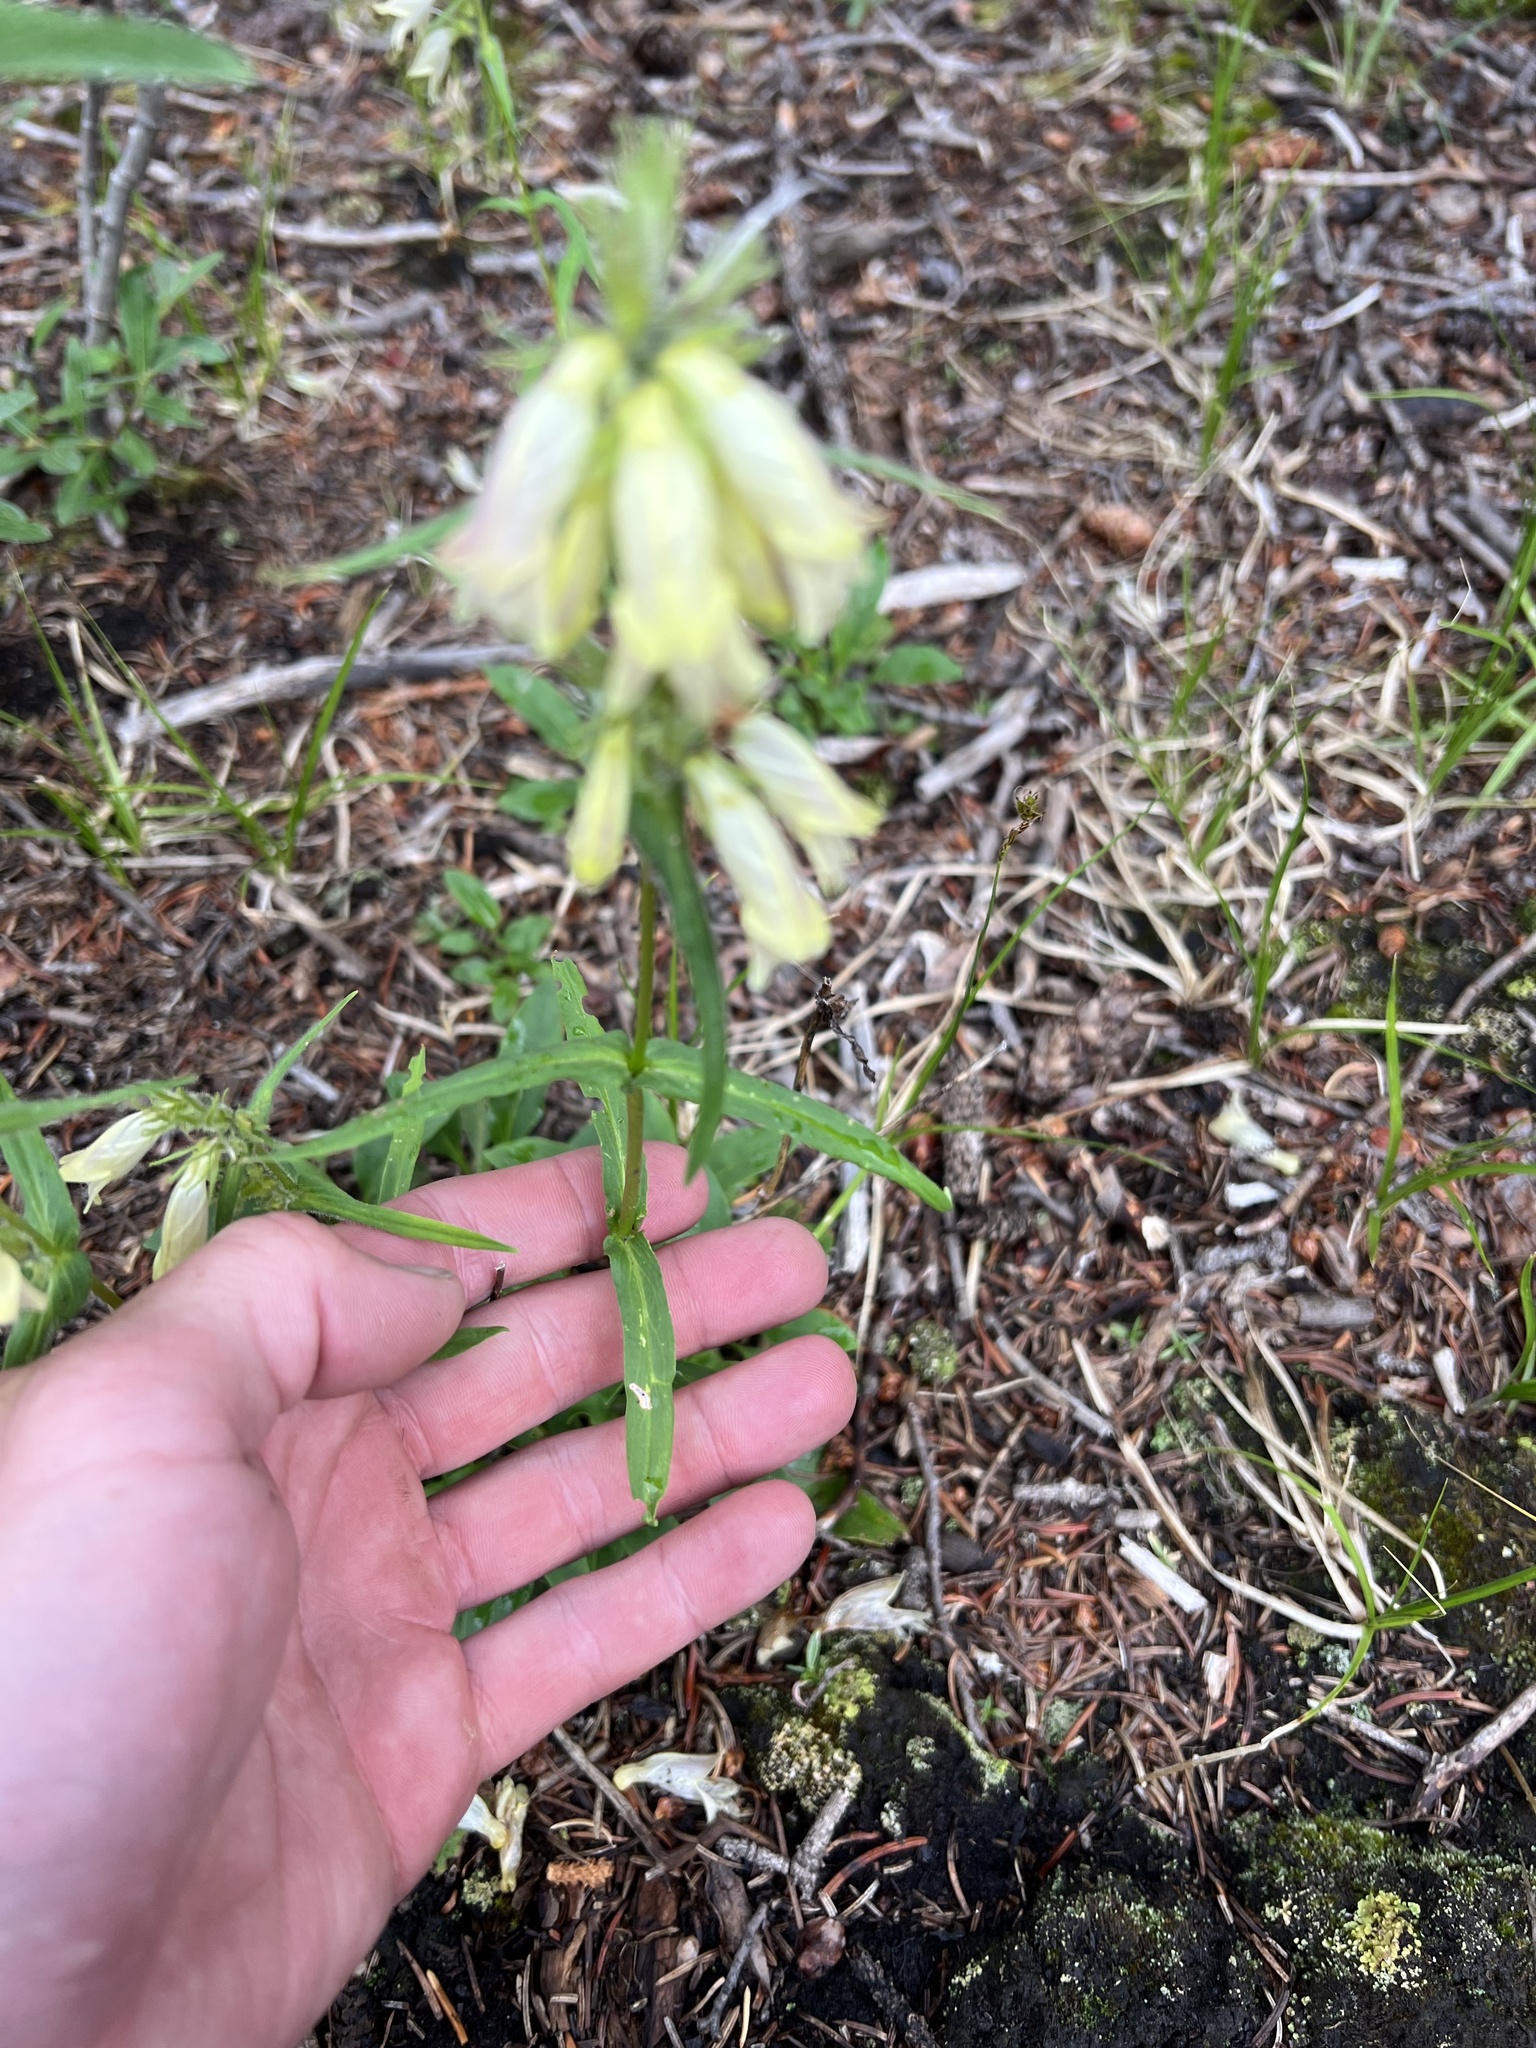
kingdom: Plantae
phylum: Tracheophyta
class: Magnoliopsida
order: Lamiales
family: Plantaginaceae
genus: Penstemon
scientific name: Penstemon whippleanus
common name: Whipple's penstemon
